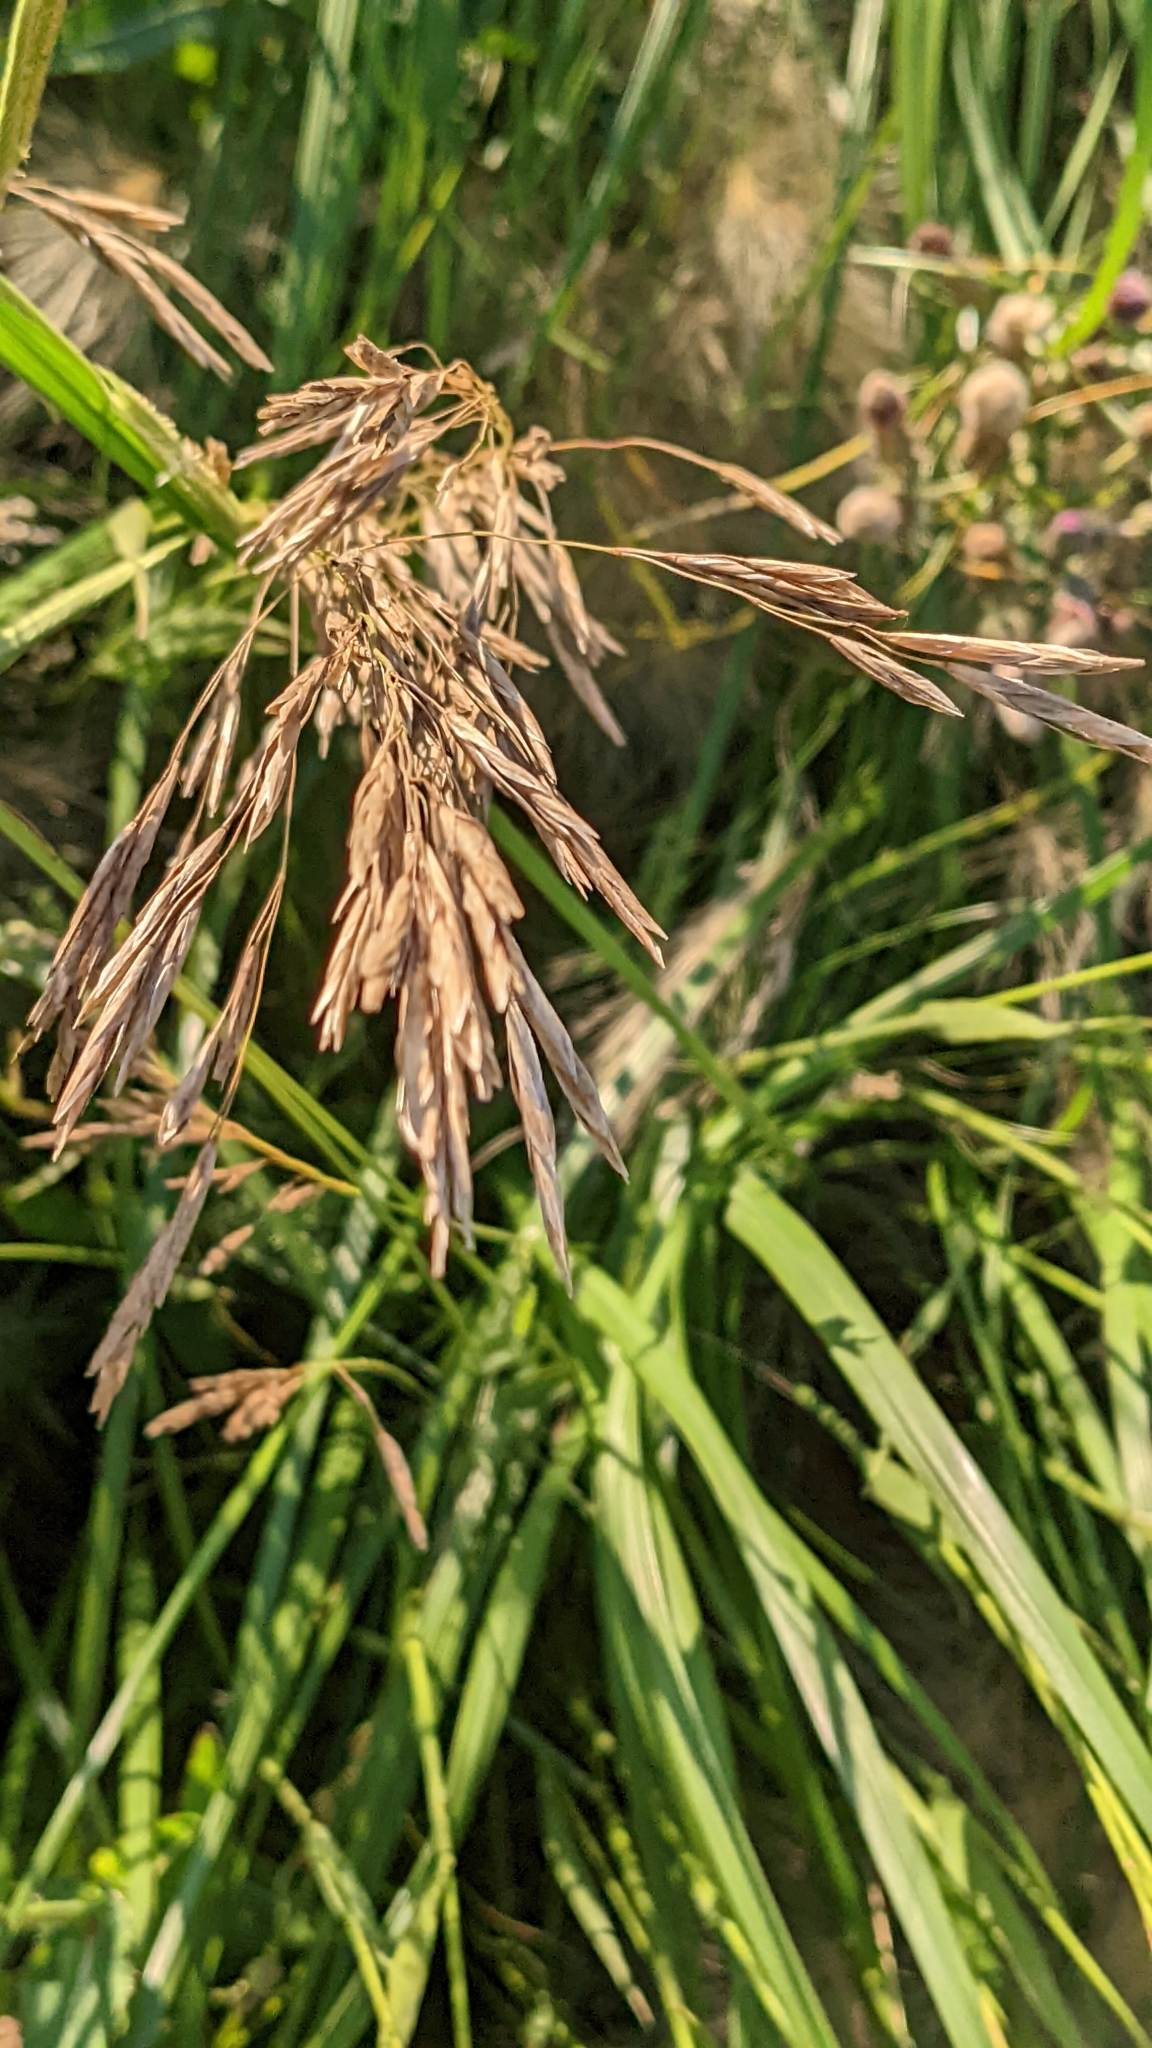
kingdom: Plantae
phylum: Tracheophyta
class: Liliopsida
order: Poales
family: Poaceae
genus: Sporobolus
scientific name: Sporobolus michauxianus
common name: Freshwater cordgrass
